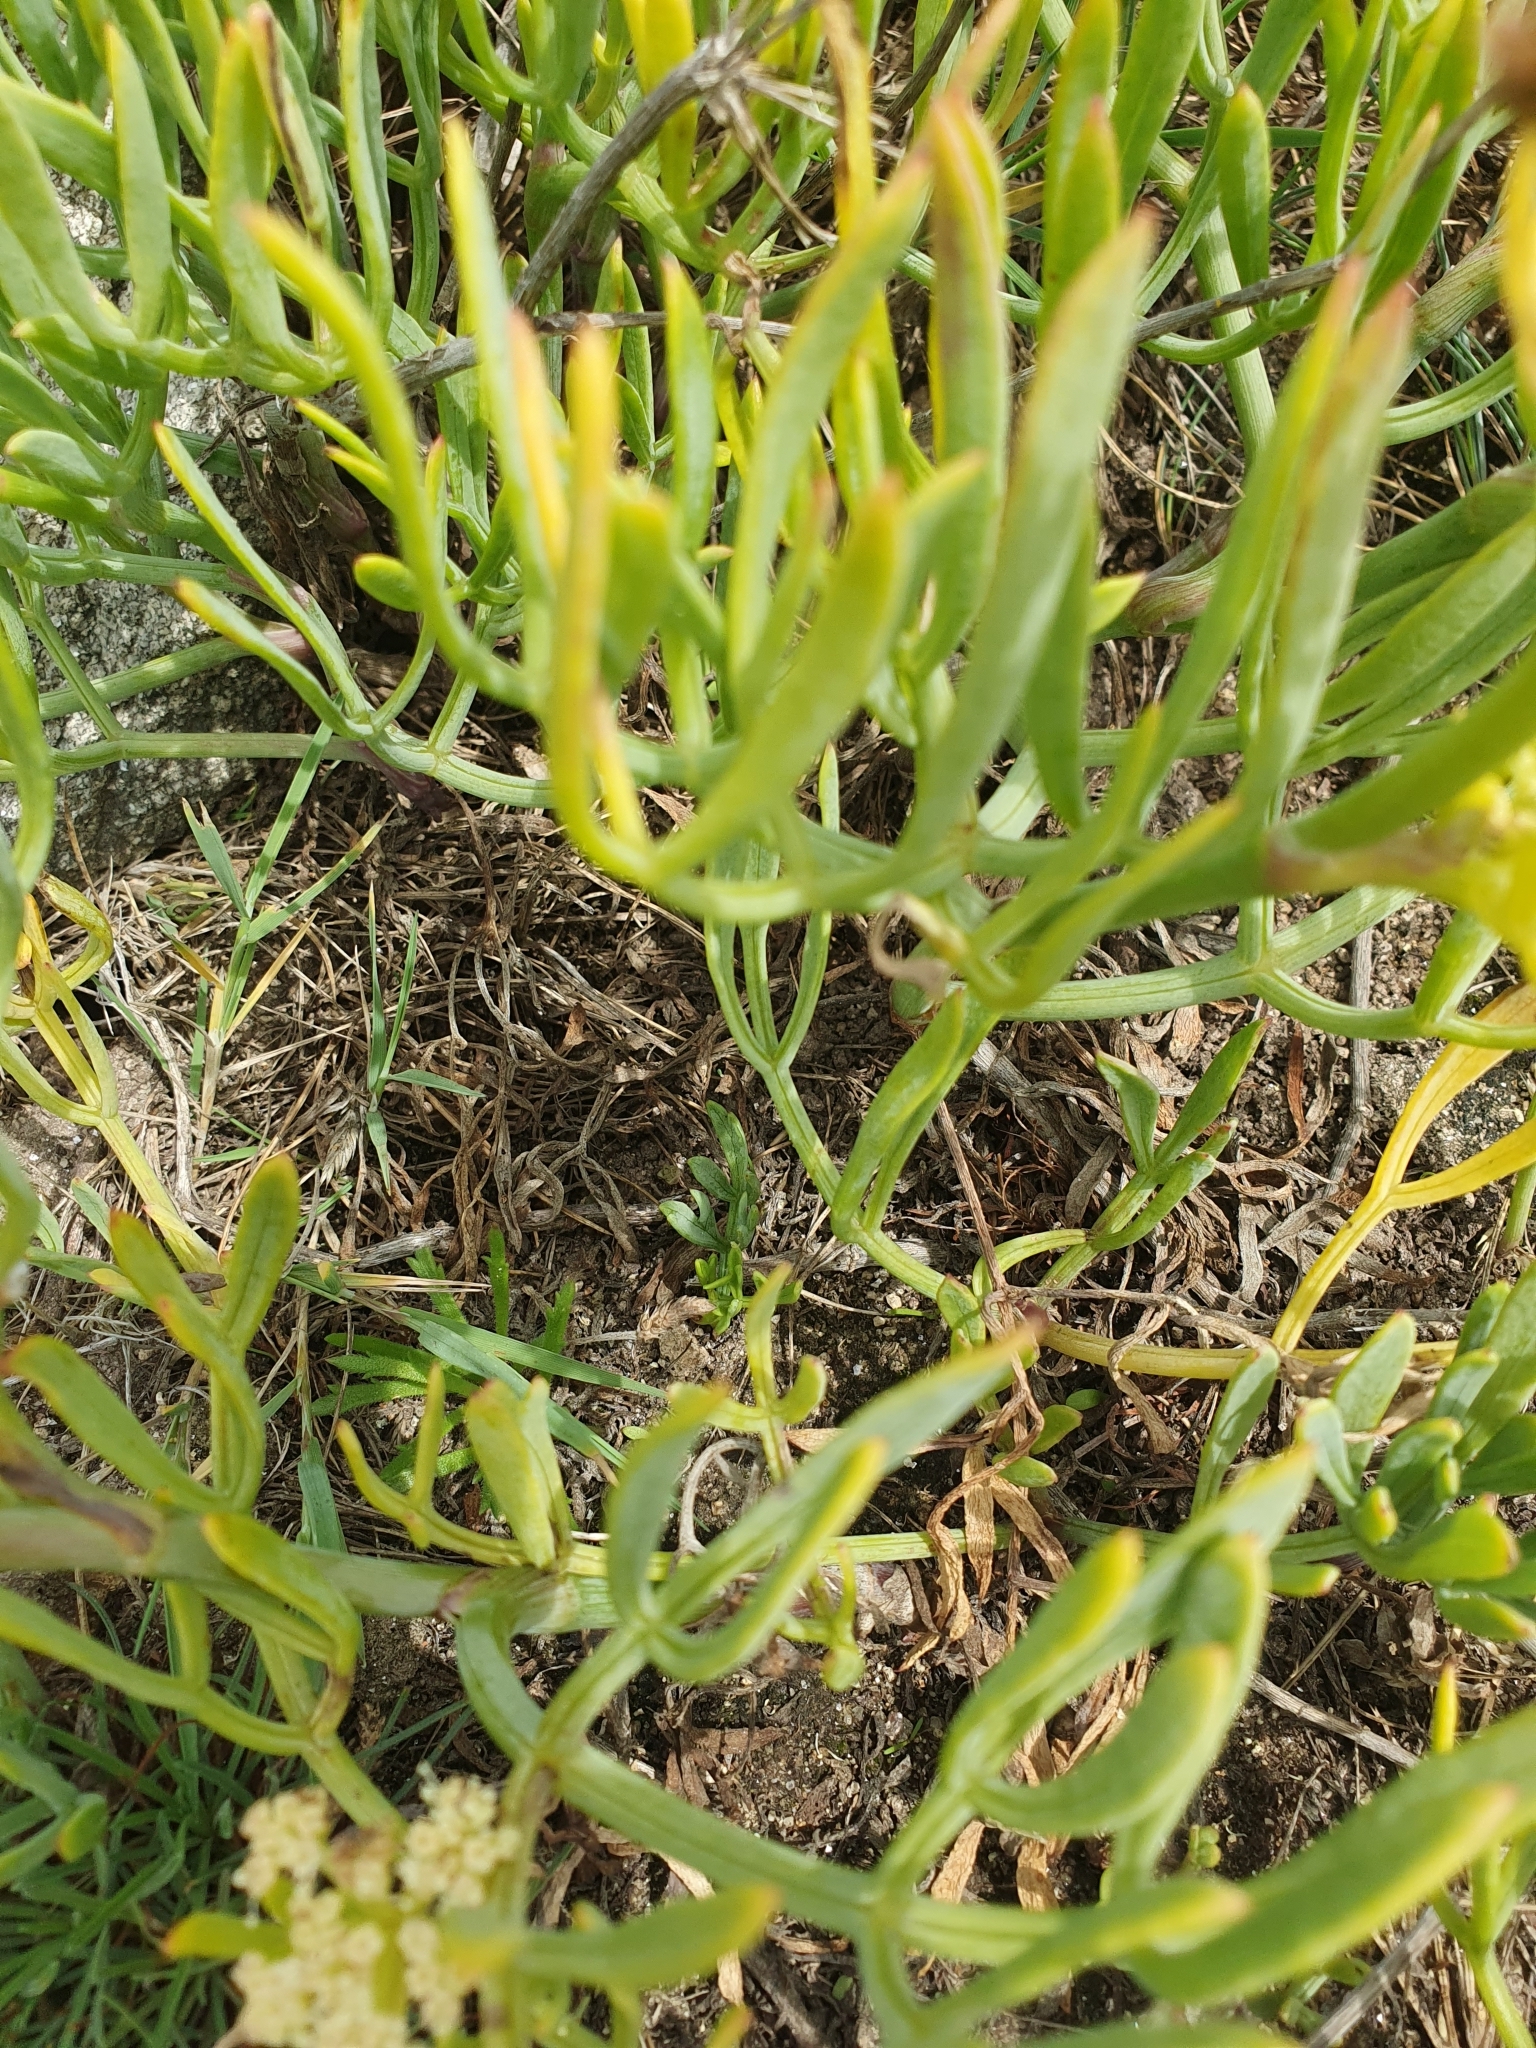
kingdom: Plantae
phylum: Tracheophyta
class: Magnoliopsida
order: Apiales
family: Apiaceae
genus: Crithmum
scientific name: Crithmum maritimum
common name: Rock samphire
